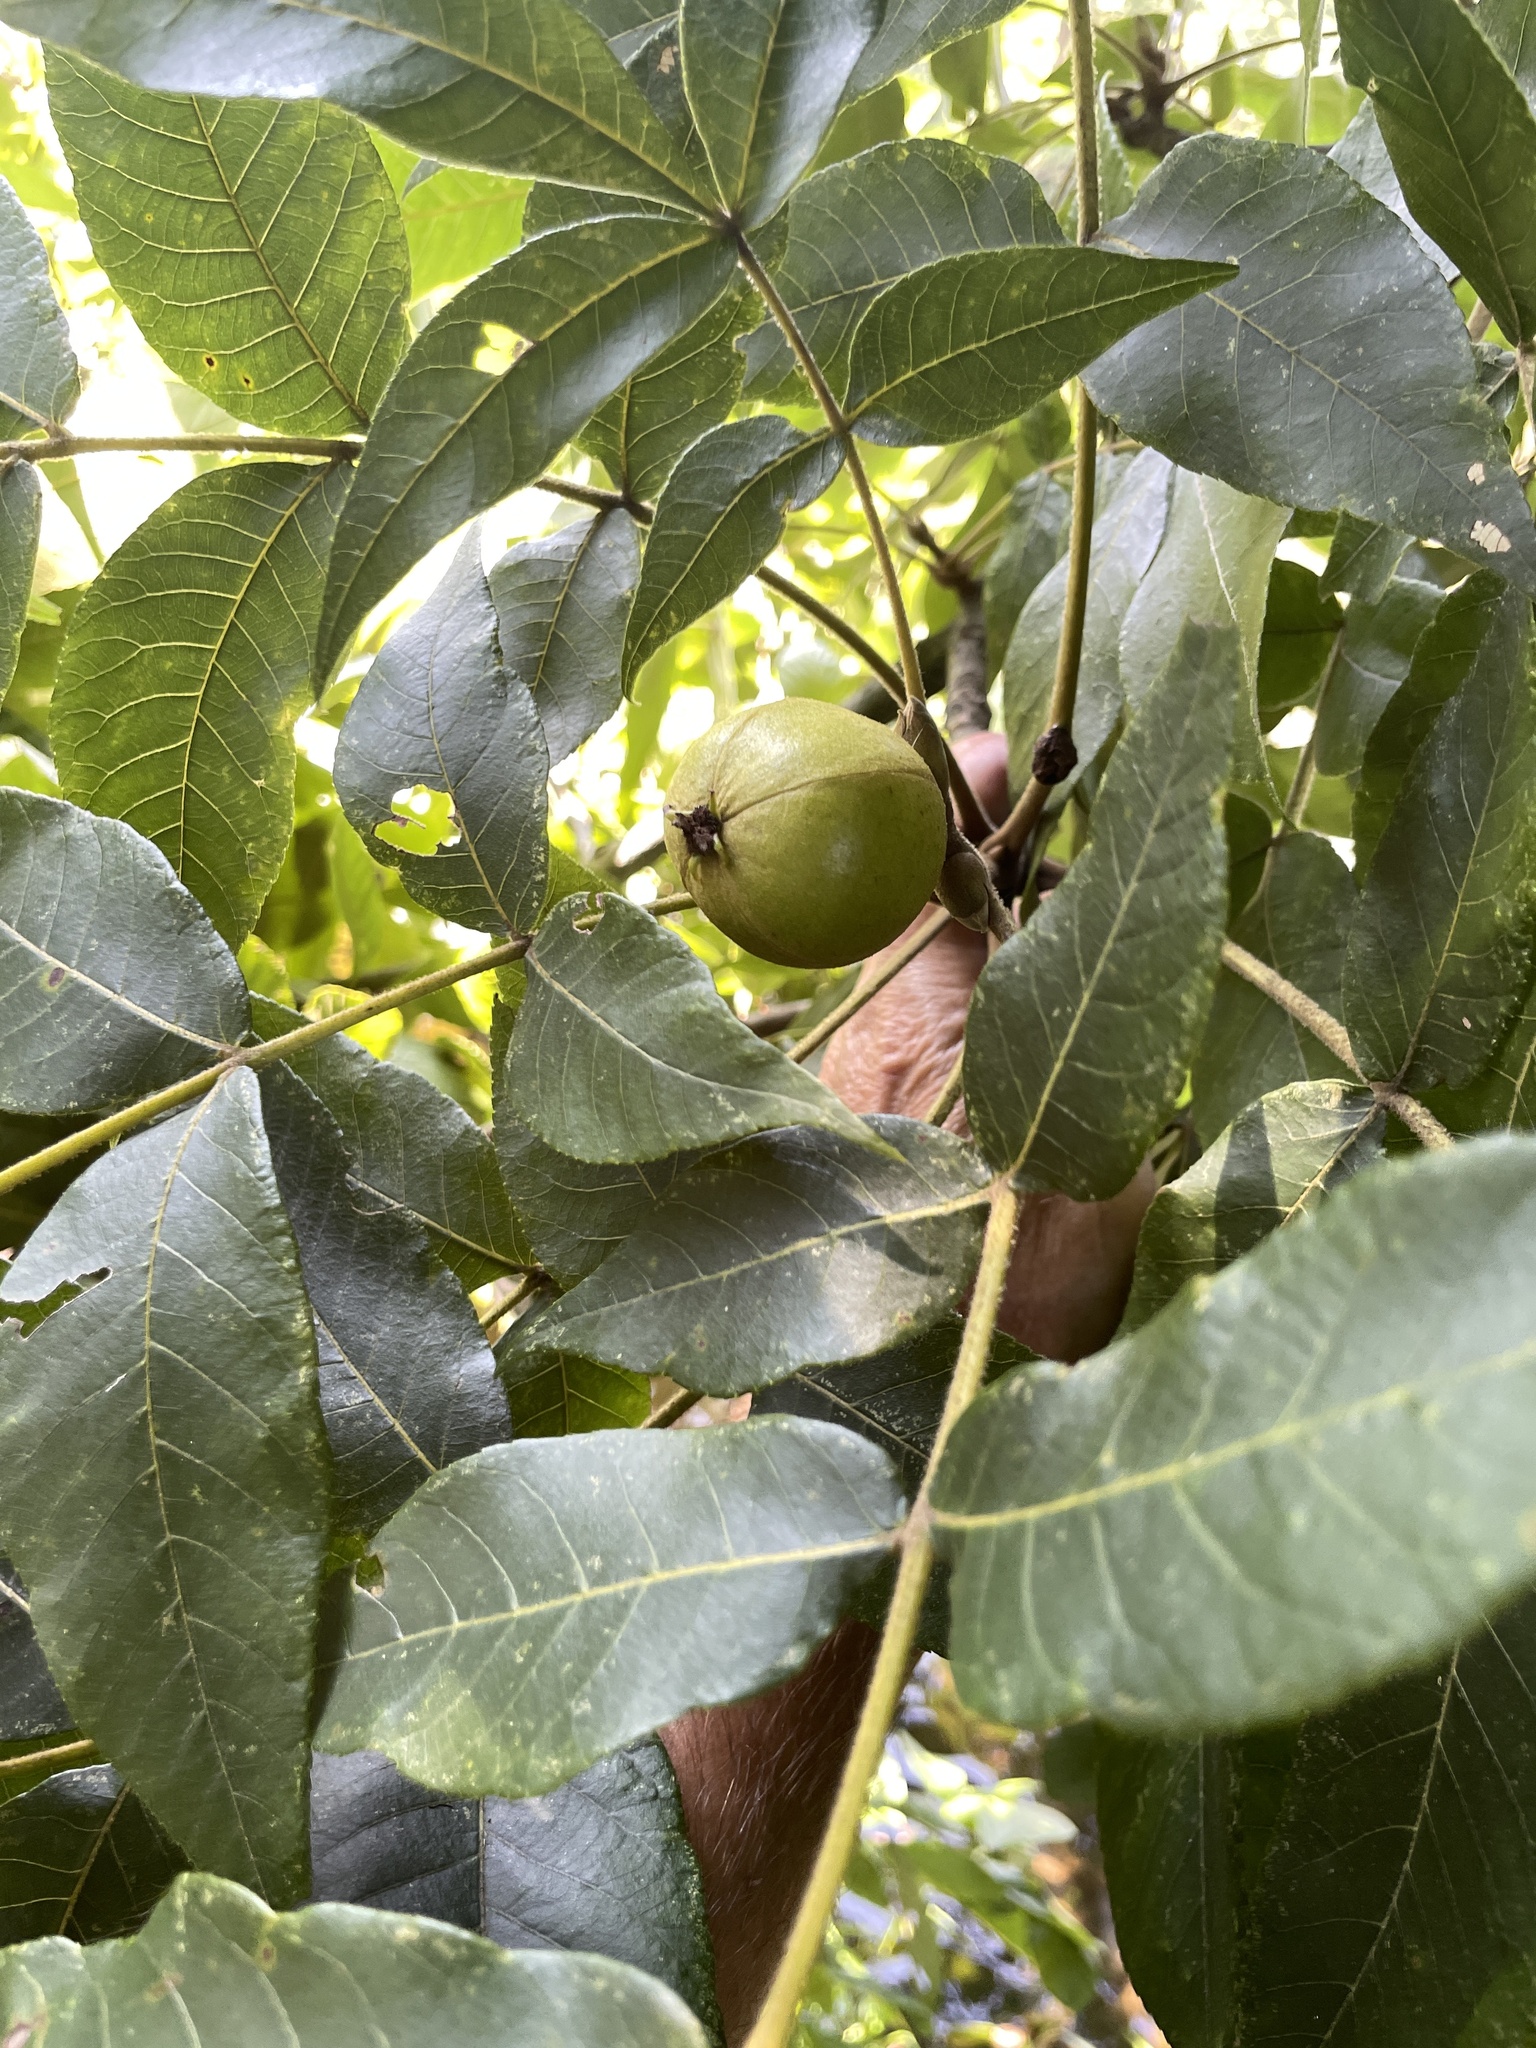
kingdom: Plantae
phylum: Tracheophyta
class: Magnoliopsida
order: Fagales
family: Juglandaceae
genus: Carya
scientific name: Carya alba
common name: Mockernut hickory
